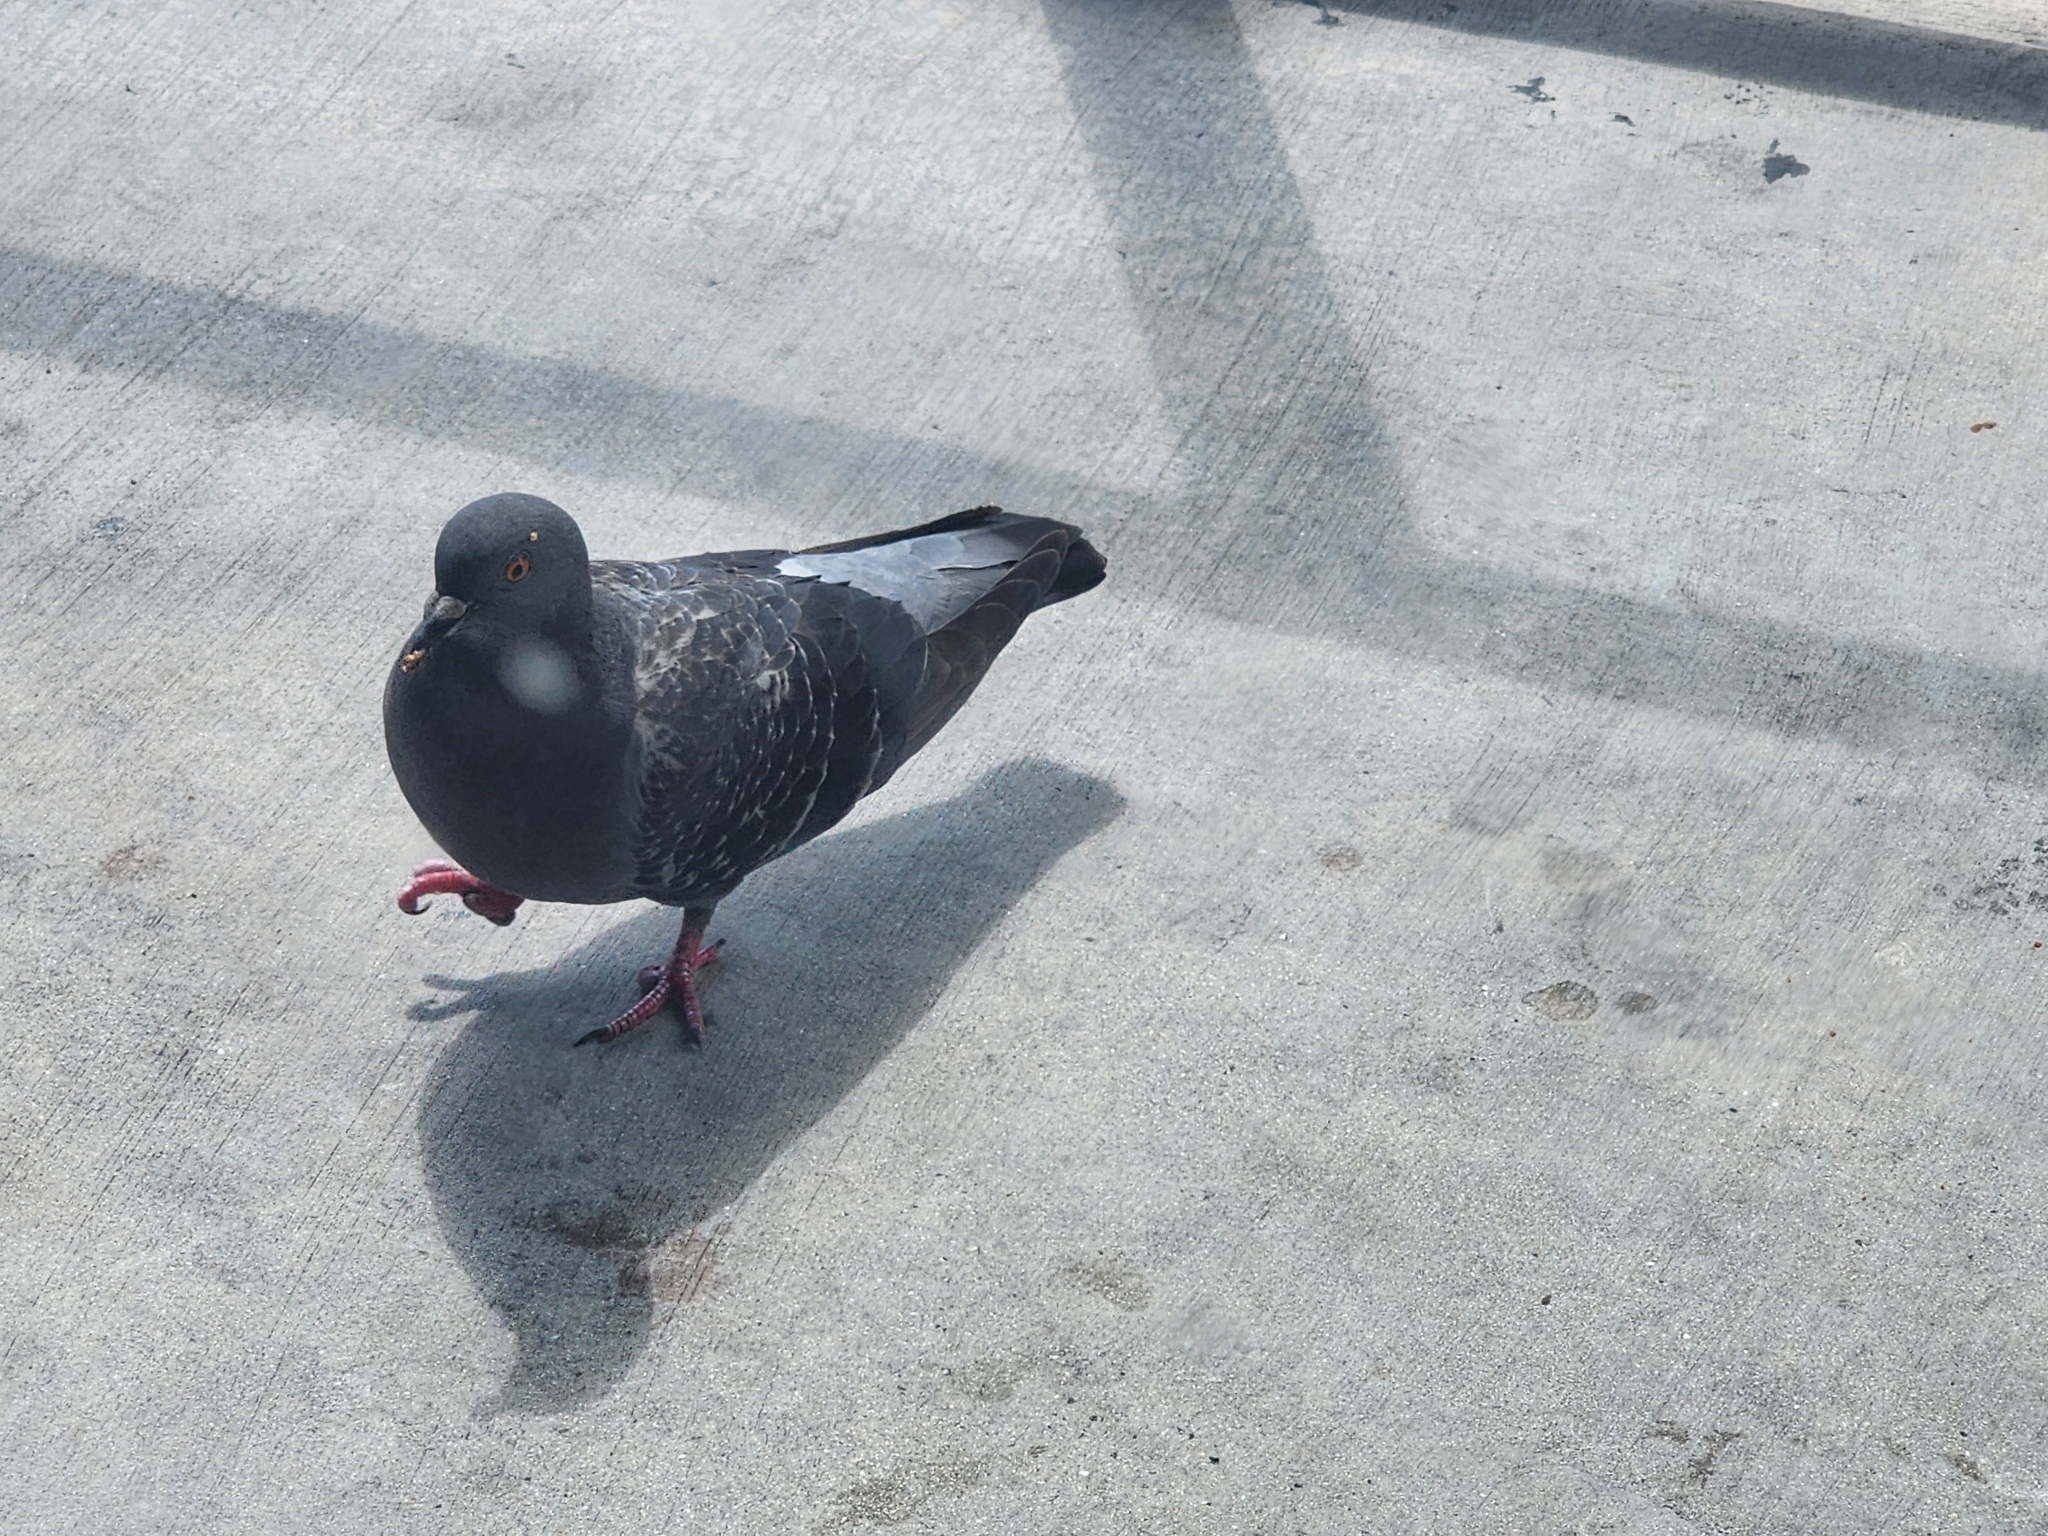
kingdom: Animalia
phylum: Chordata
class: Aves
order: Columbiformes
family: Columbidae
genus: Columba
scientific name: Columba livia
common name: Rock pigeon
